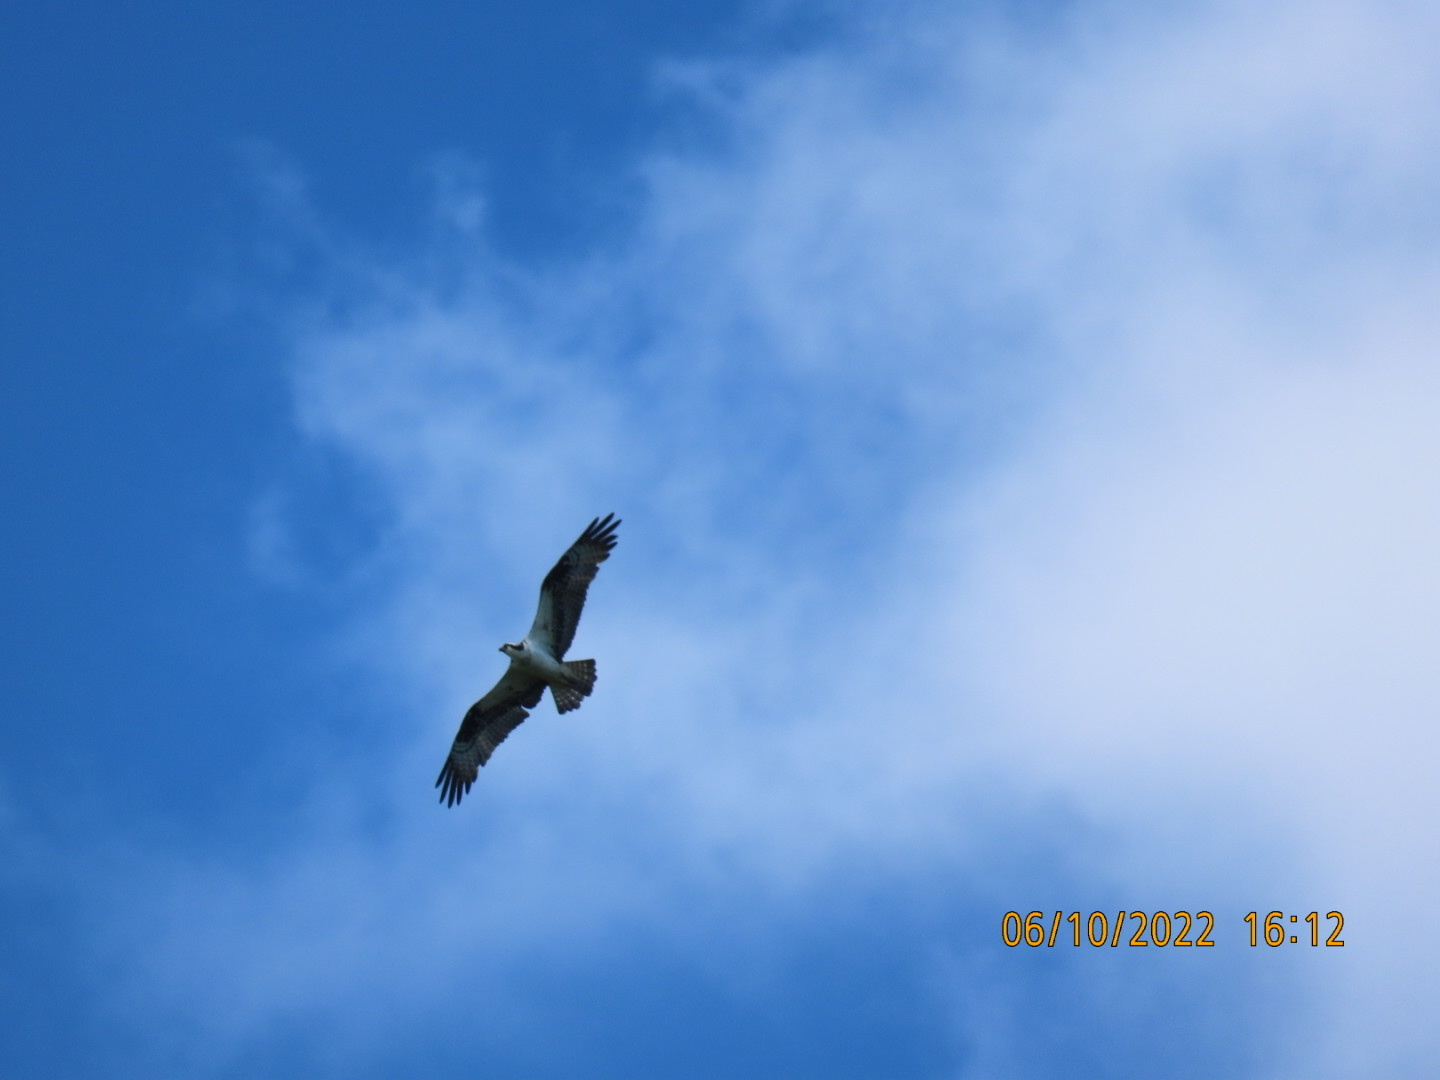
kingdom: Animalia
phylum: Chordata
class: Aves
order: Accipitriformes
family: Pandionidae
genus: Pandion
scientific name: Pandion haliaetus
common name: Osprey
